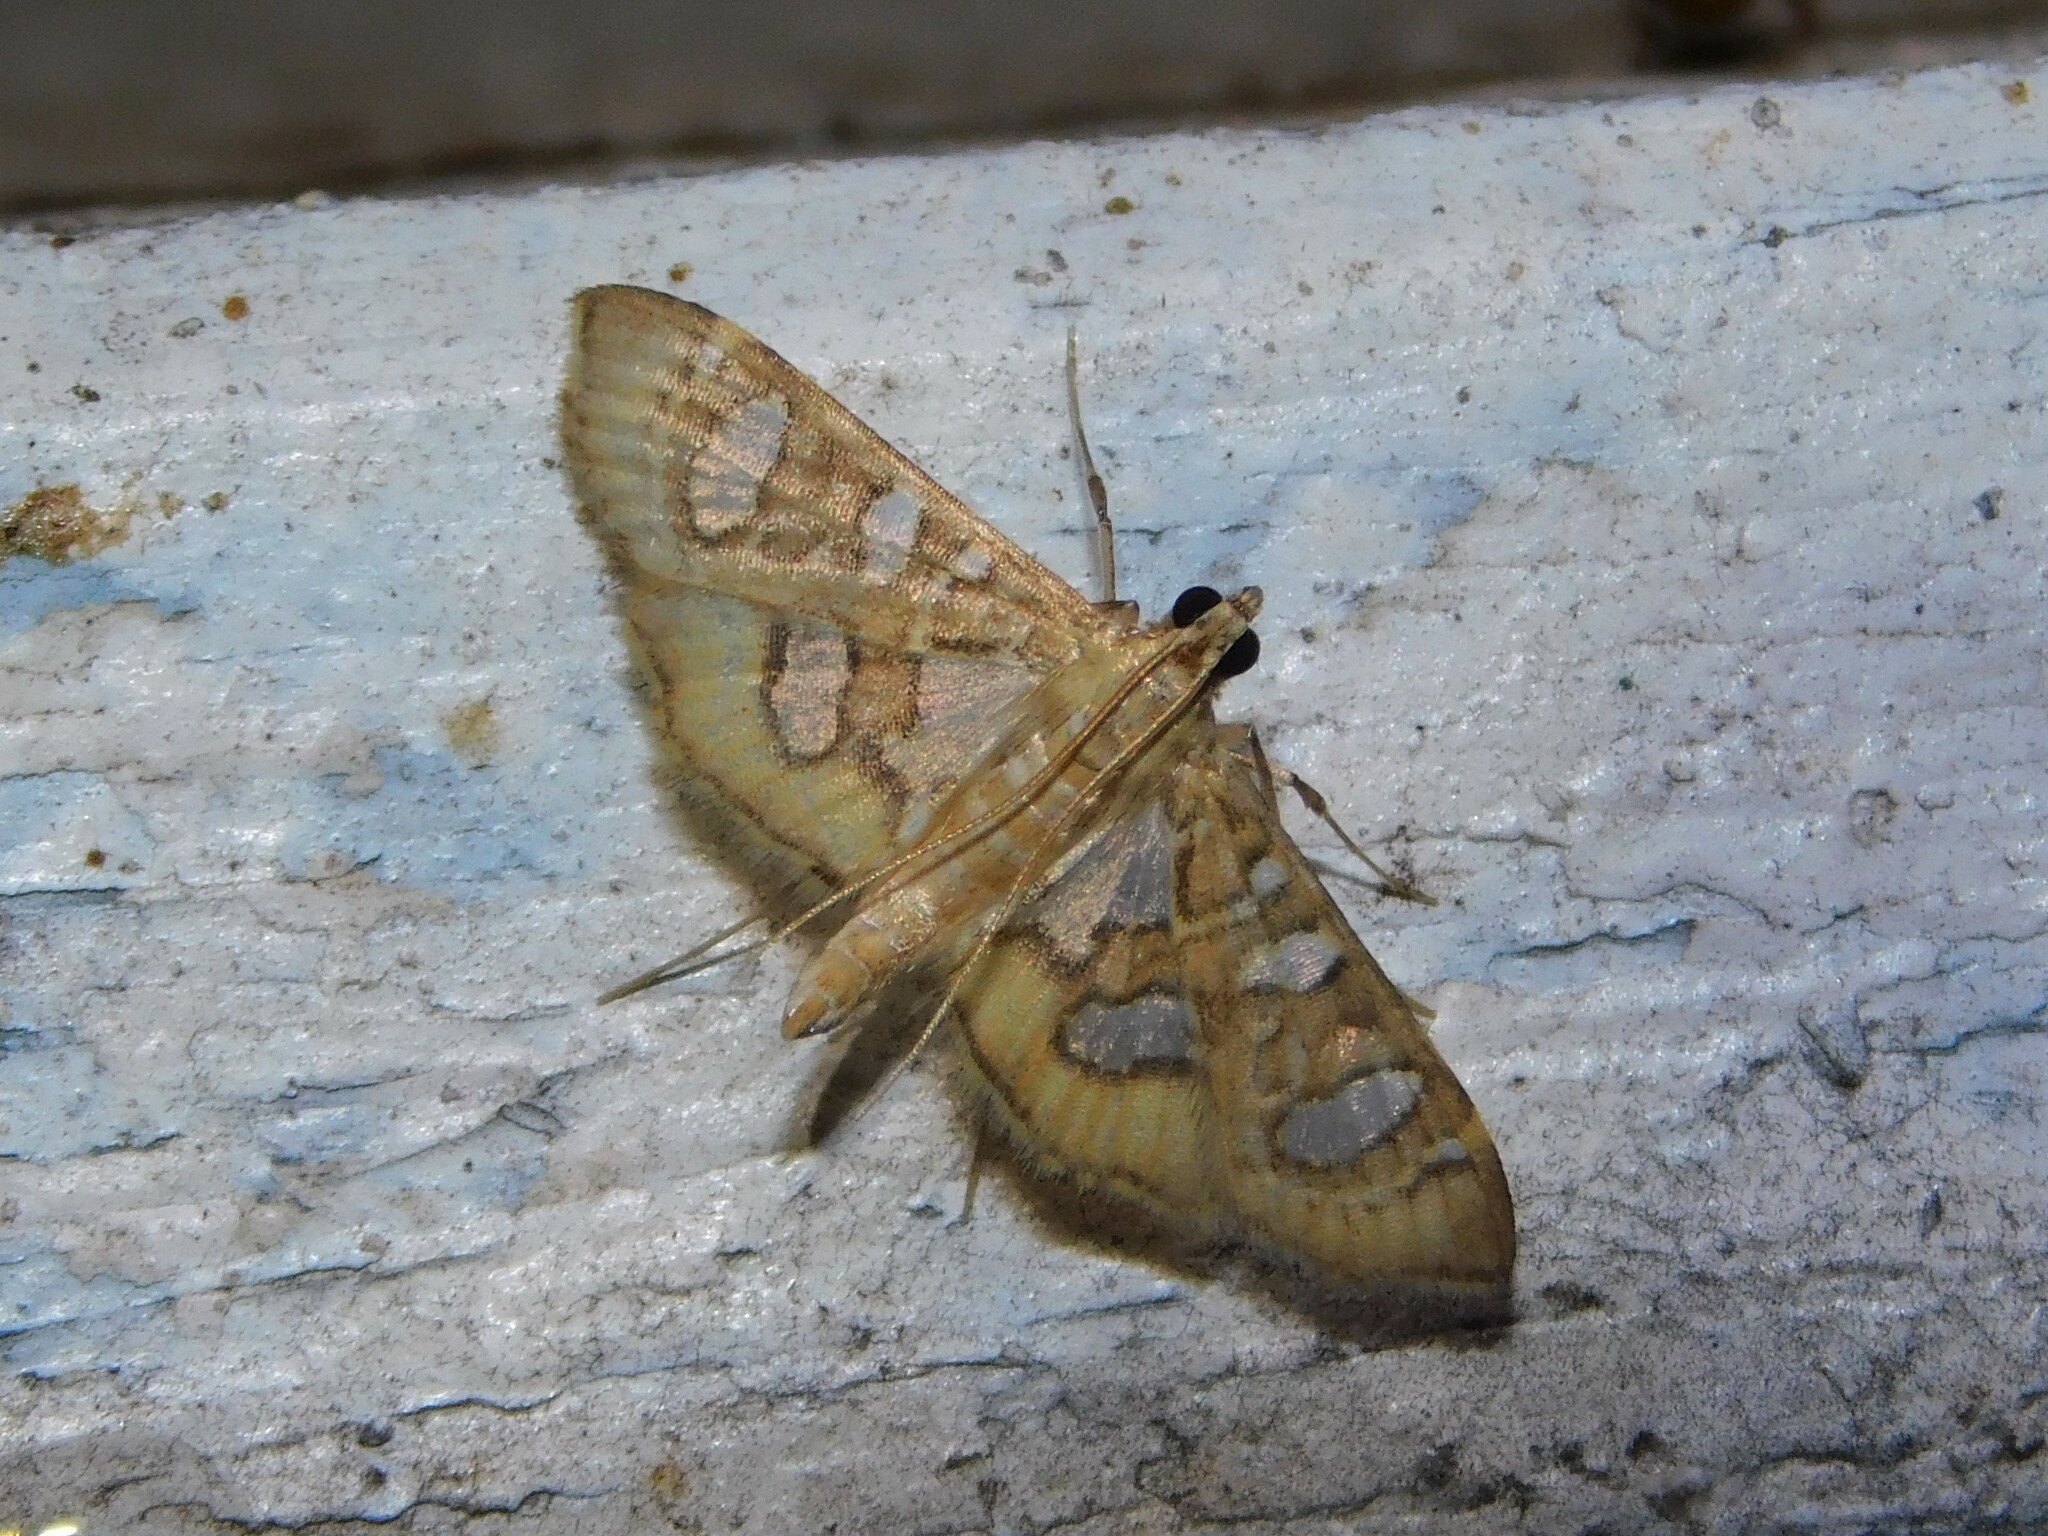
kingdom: Animalia
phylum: Arthropoda
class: Insecta
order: Lepidoptera
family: Crambidae
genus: Nausinoe
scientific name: Nausinoe quadrinalis
